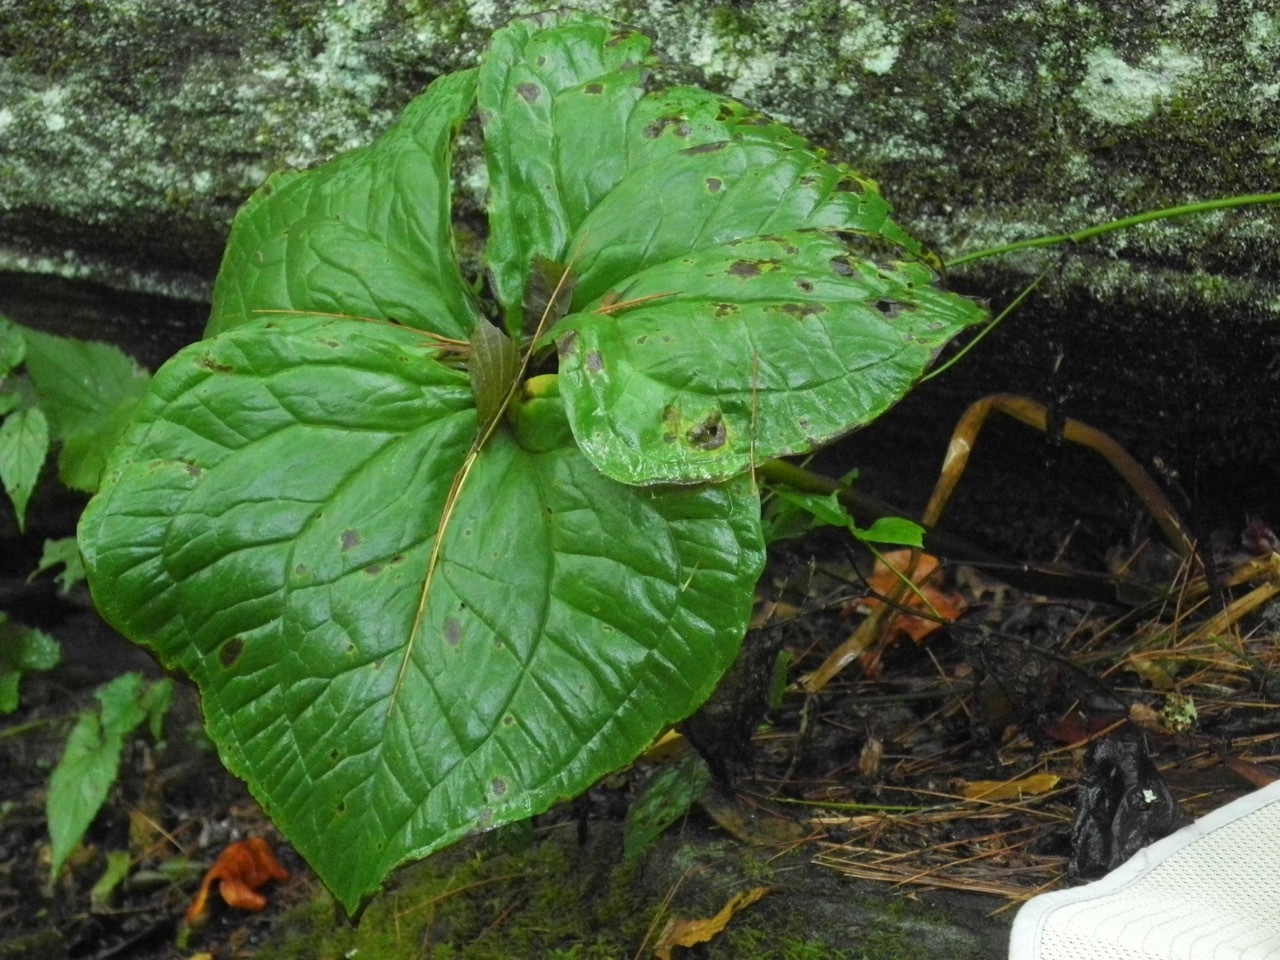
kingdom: Plantae
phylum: Tracheophyta
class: Liliopsida
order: Liliales
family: Melanthiaceae
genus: Trillium
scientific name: Trillium vaseyi
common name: Sweet trillium
